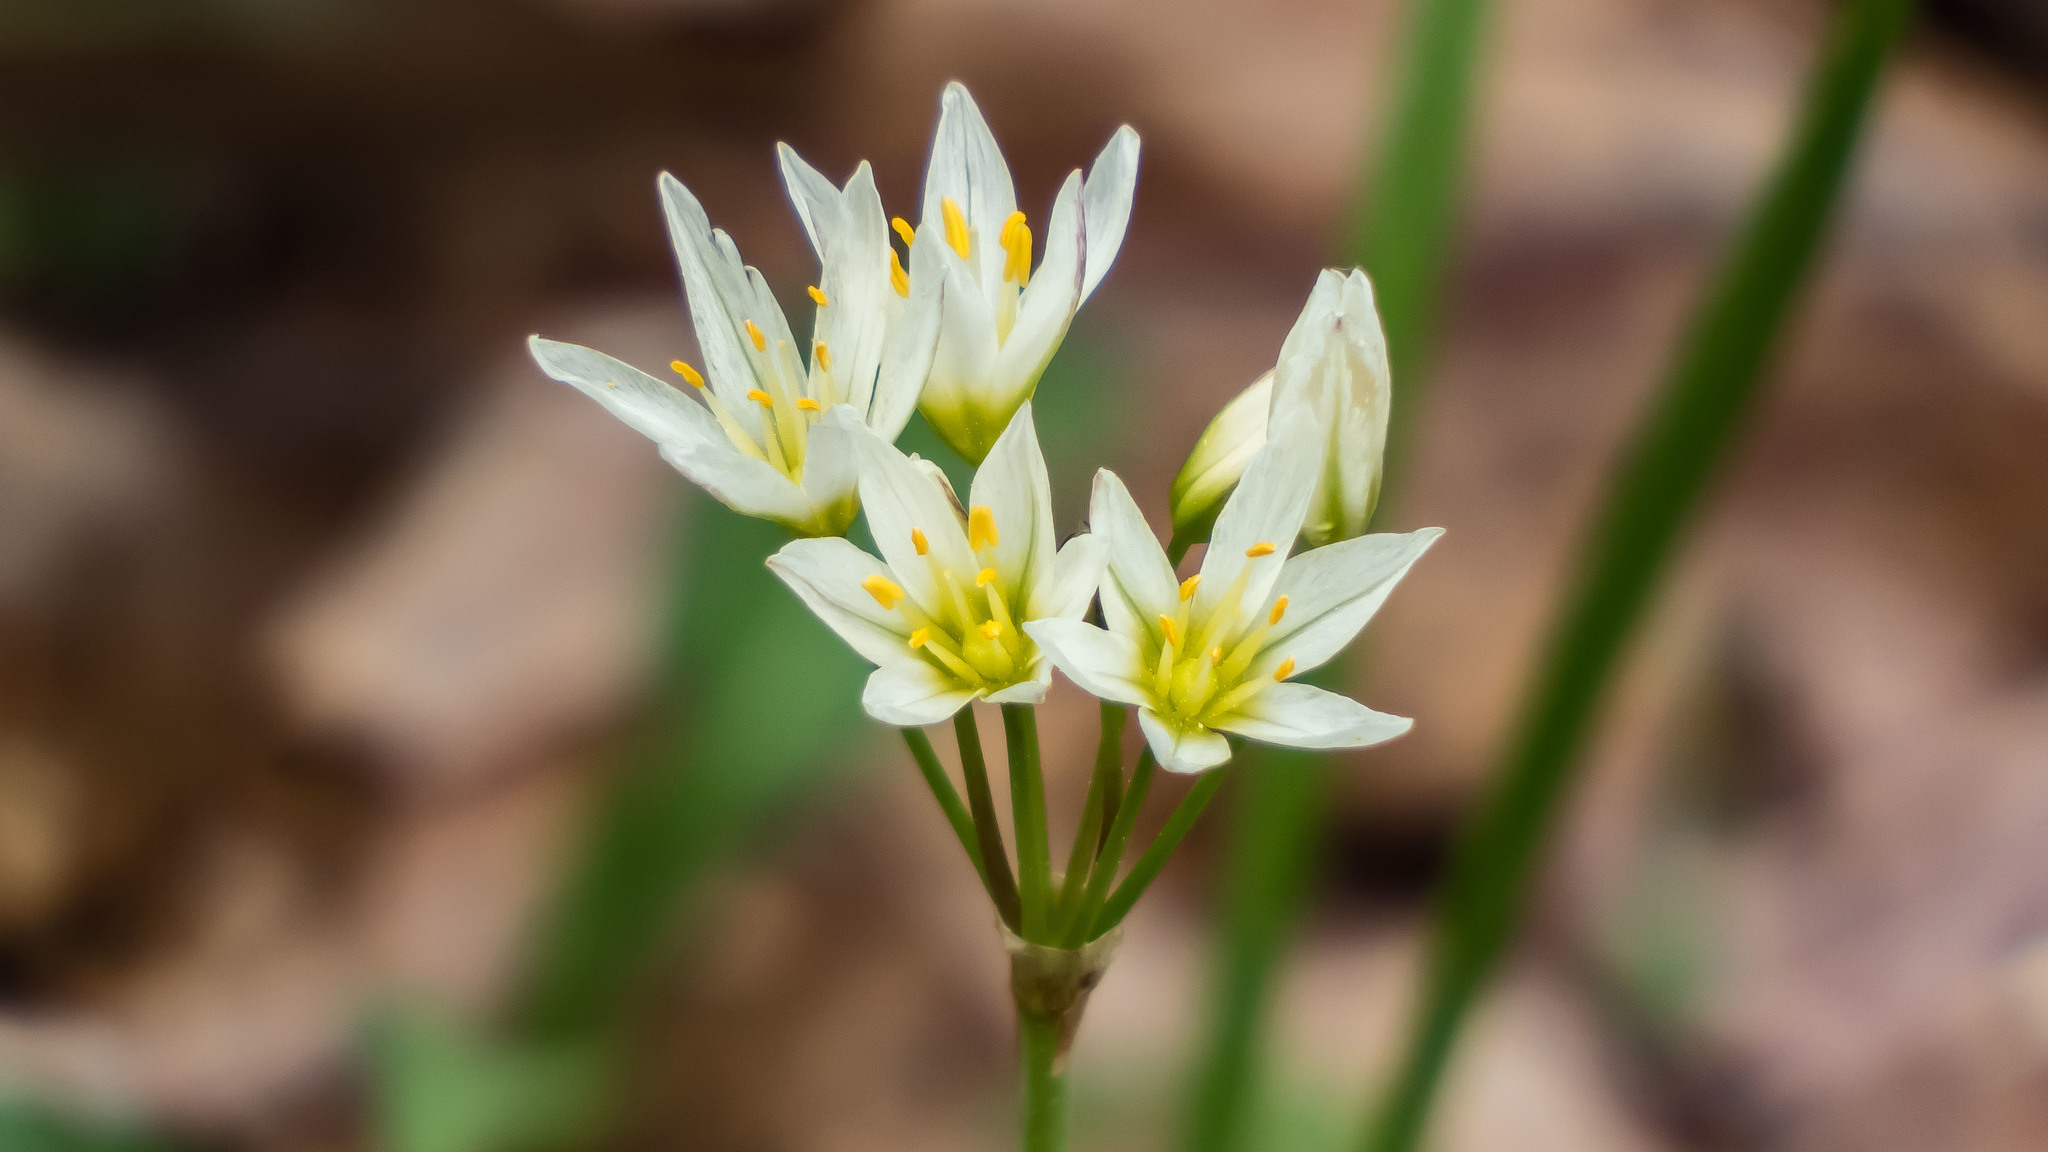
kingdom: Plantae
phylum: Tracheophyta
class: Liliopsida
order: Asparagales
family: Amaryllidaceae
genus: Nothoscordum
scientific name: Nothoscordum bivalve
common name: Crow-poison
